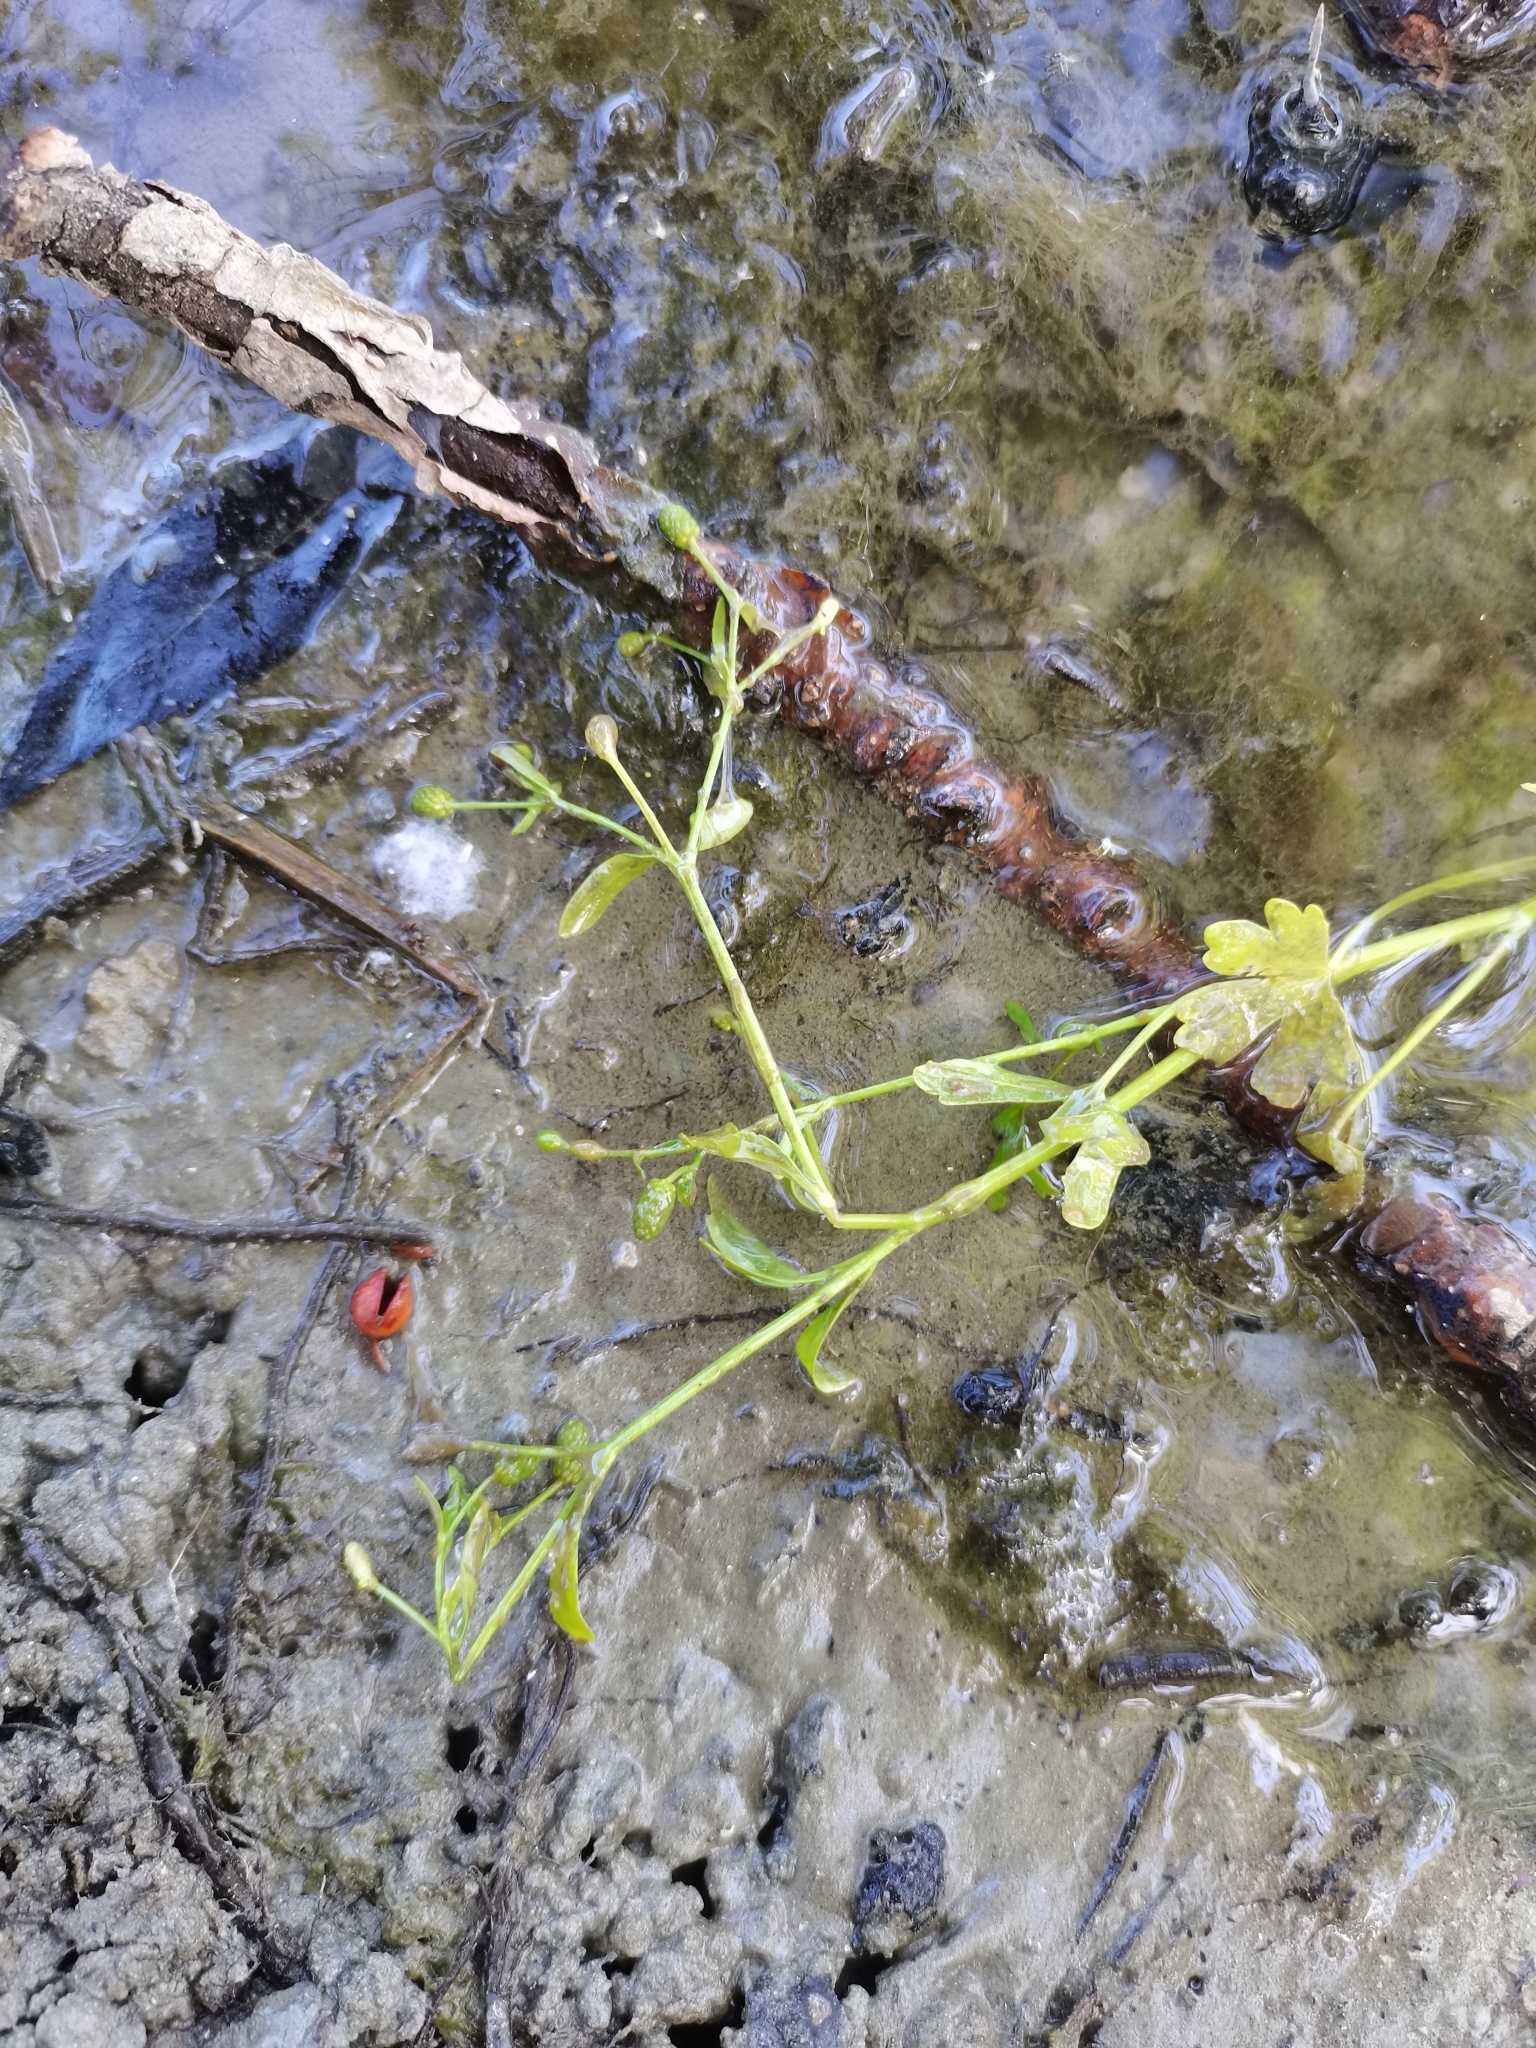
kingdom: Plantae
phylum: Tracheophyta
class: Magnoliopsida
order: Ranunculales
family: Ranunculaceae
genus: Ranunculus
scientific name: Ranunculus sceleratus
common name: Celery-leaved buttercup
